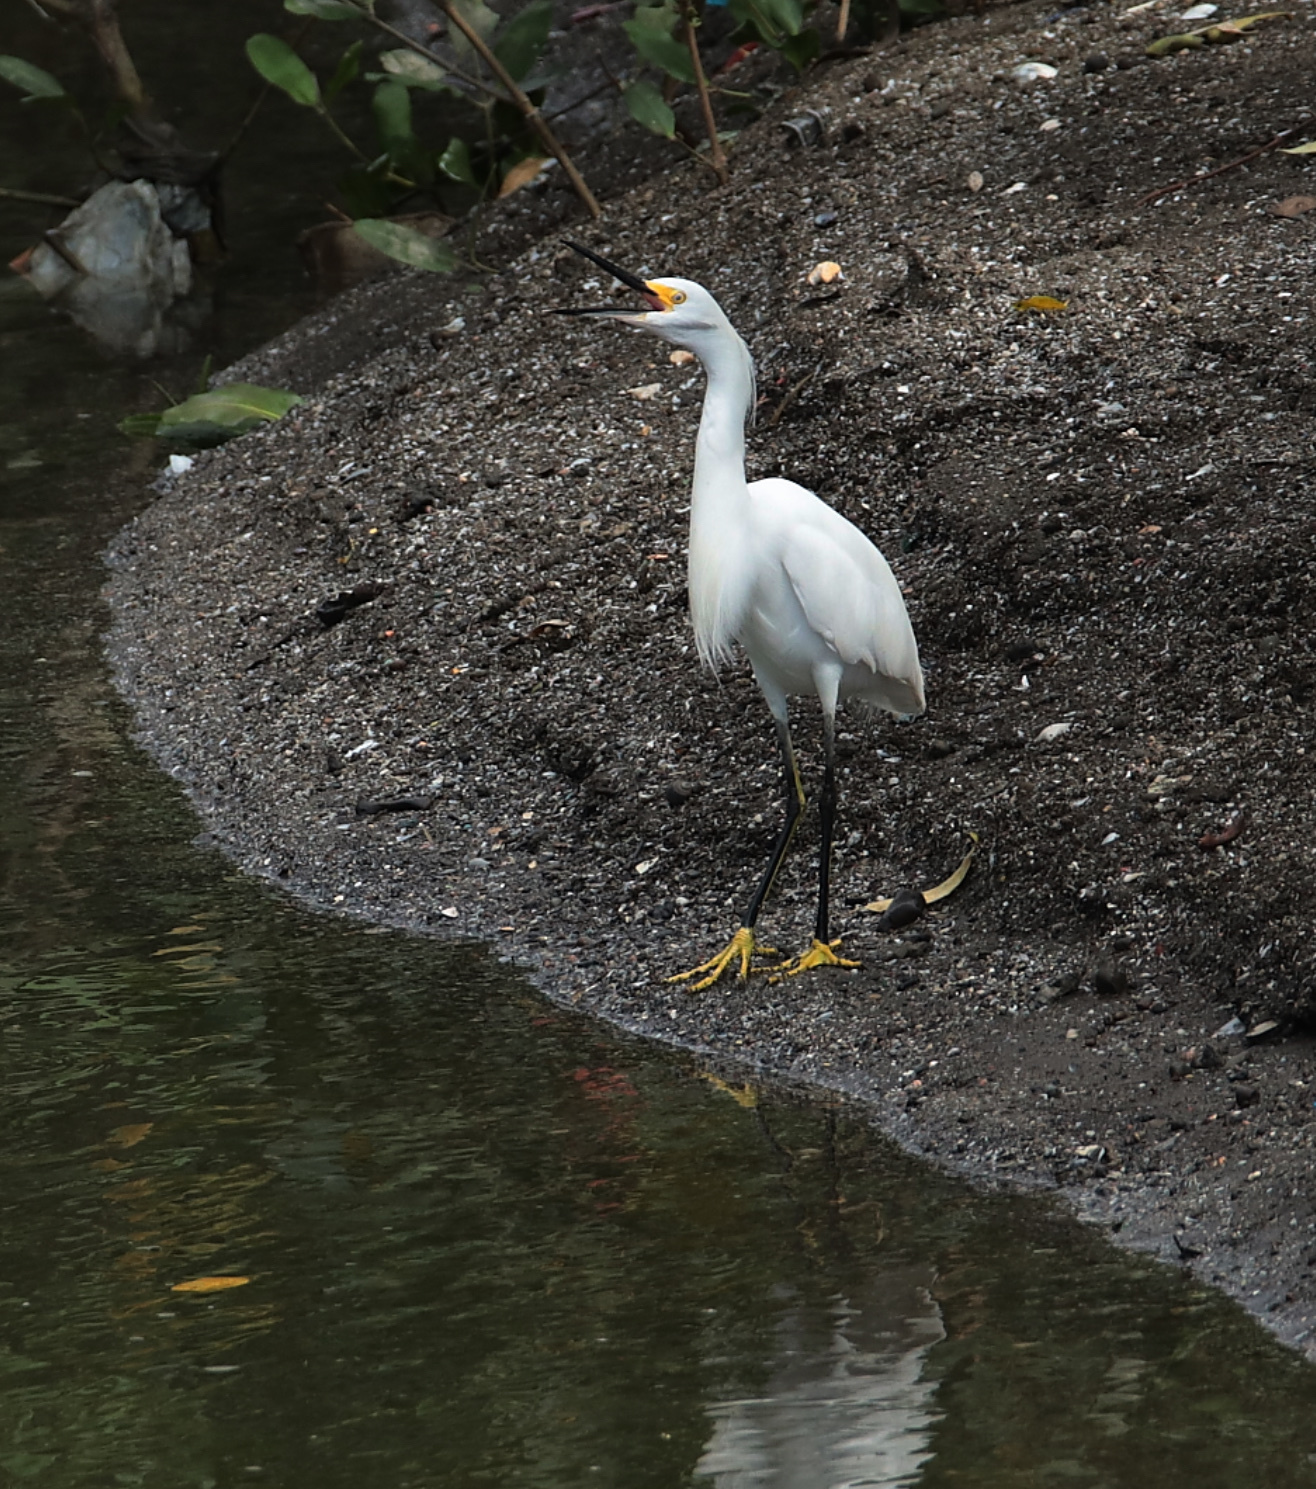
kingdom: Animalia
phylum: Chordata
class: Aves
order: Pelecaniformes
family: Ardeidae
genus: Egretta
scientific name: Egretta thula
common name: Snowy egret
